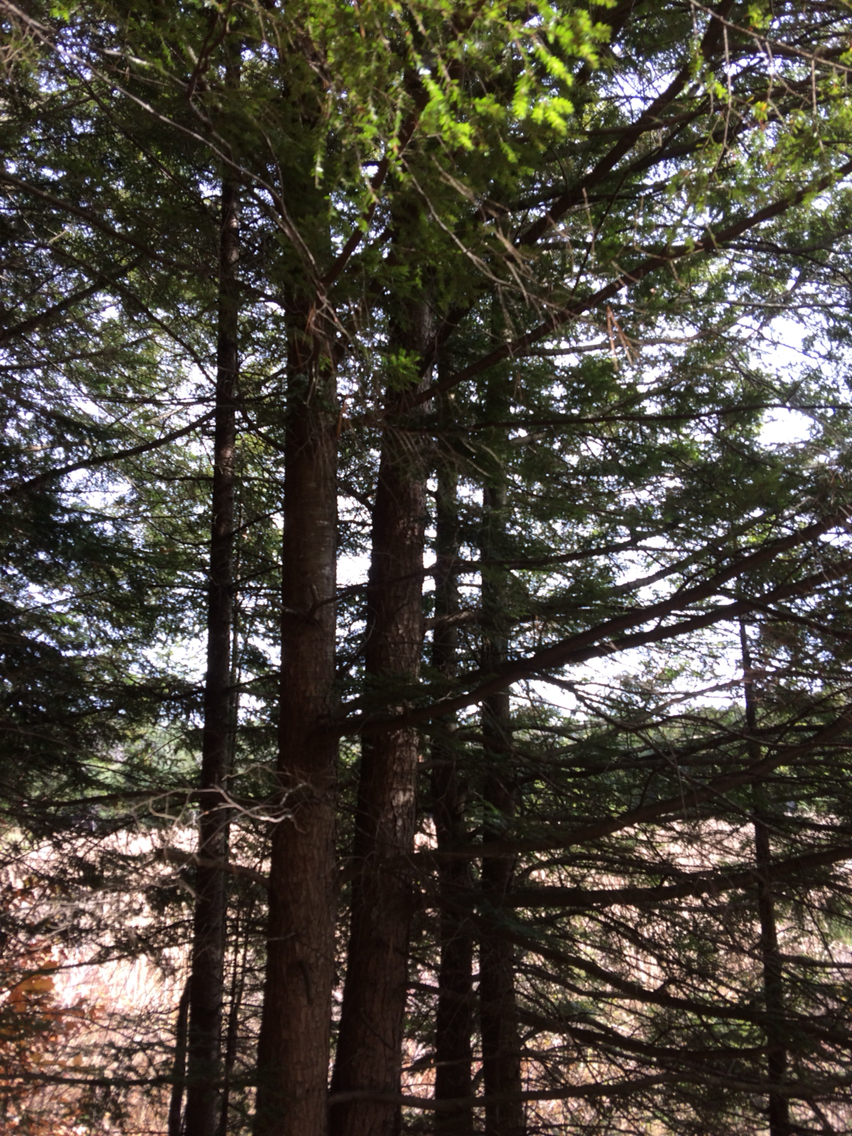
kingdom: Plantae
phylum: Tracheophyta
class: Pinopsida
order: Pinales
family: Pinaceae
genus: Tsuga
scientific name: Tsuga canadensis
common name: Eastern hemlock
